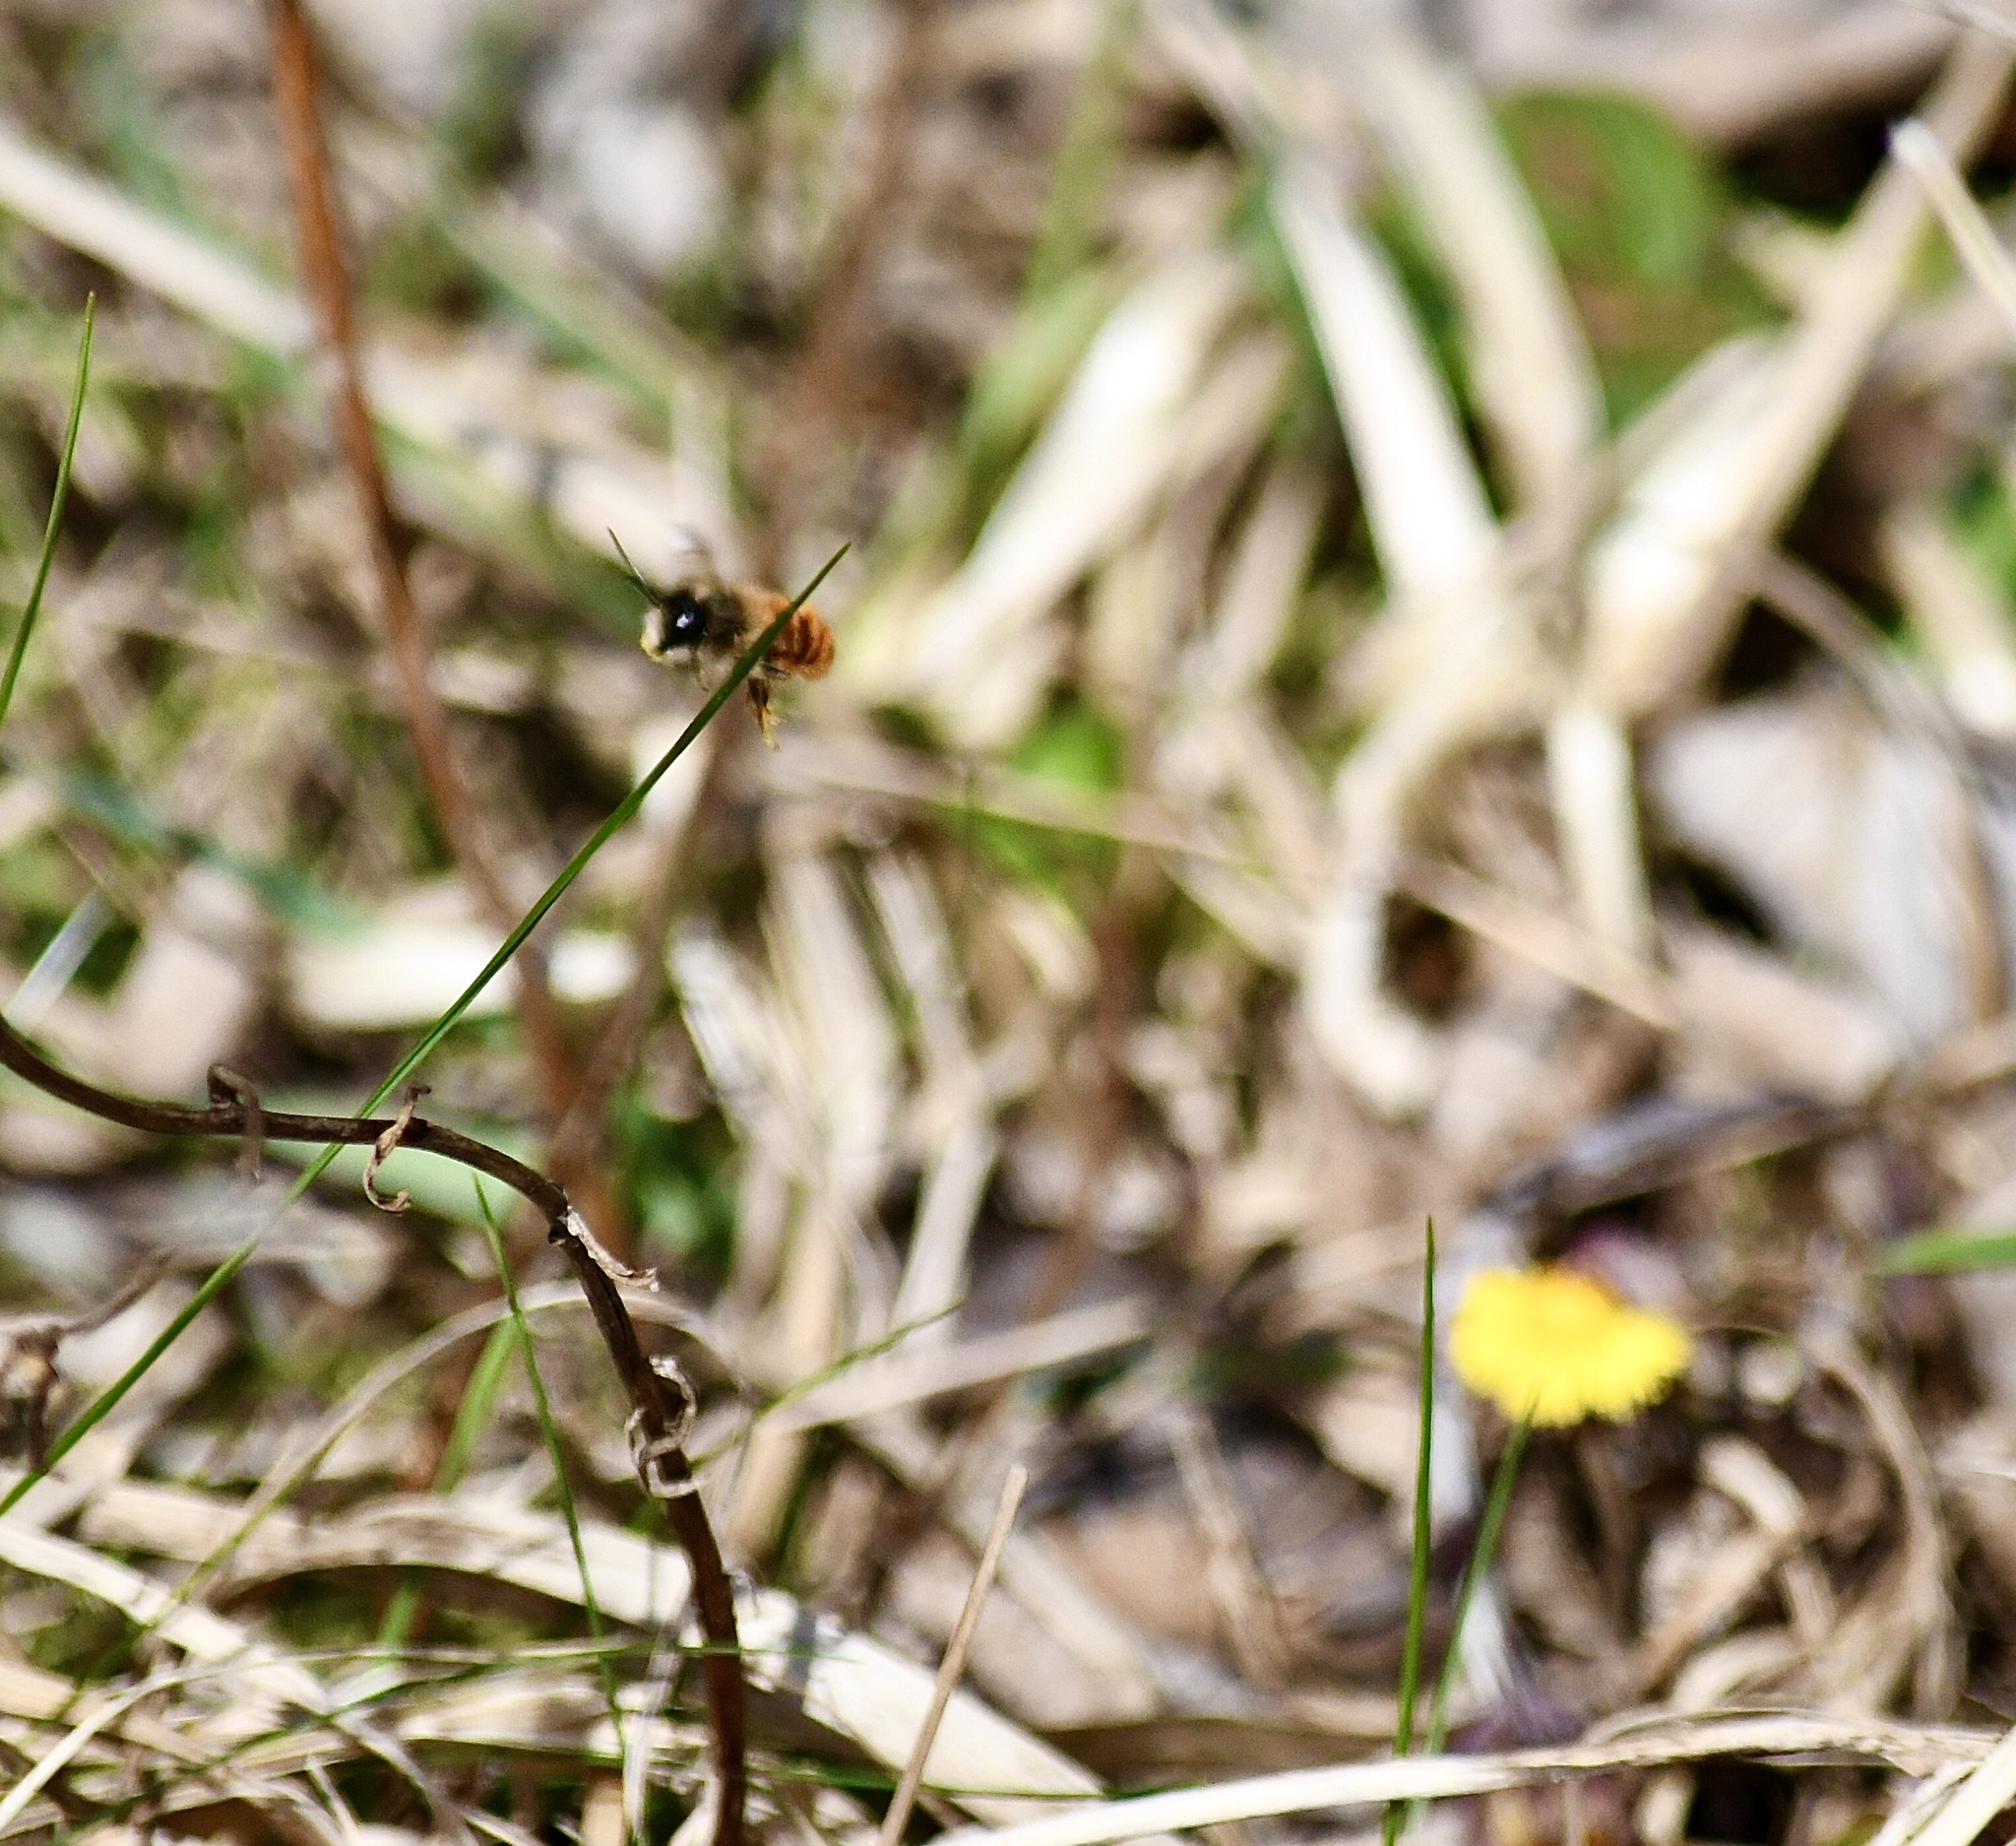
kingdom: Animalia
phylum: Arthropoda
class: Insecta
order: Hymenoptera
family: Megachilidae
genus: Osmia
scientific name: Osmia bicornis
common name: Red mason bee
